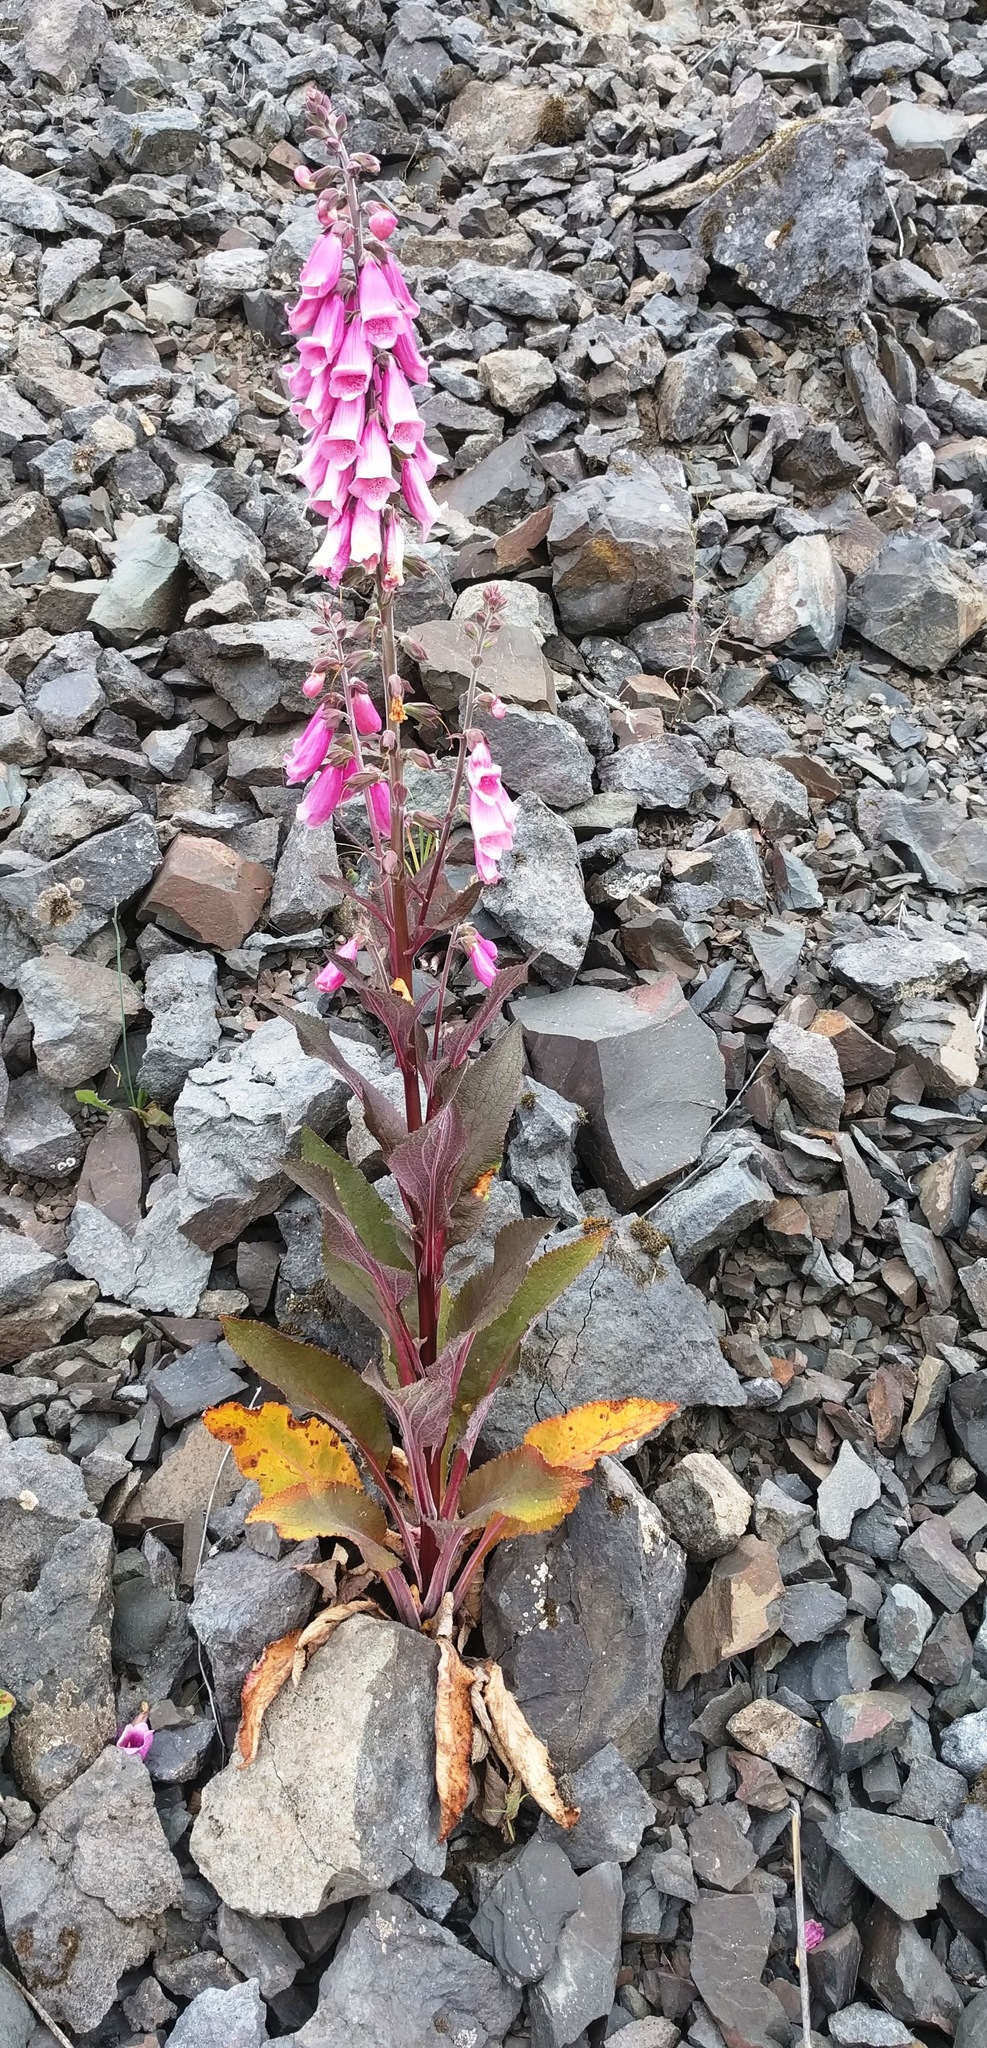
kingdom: Plantae
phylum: Tracheophyta
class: Magnoliopsida
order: Lamiales
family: Plantaginaceae
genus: Digitalis
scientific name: Digitalis purpurea
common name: Foxglove
